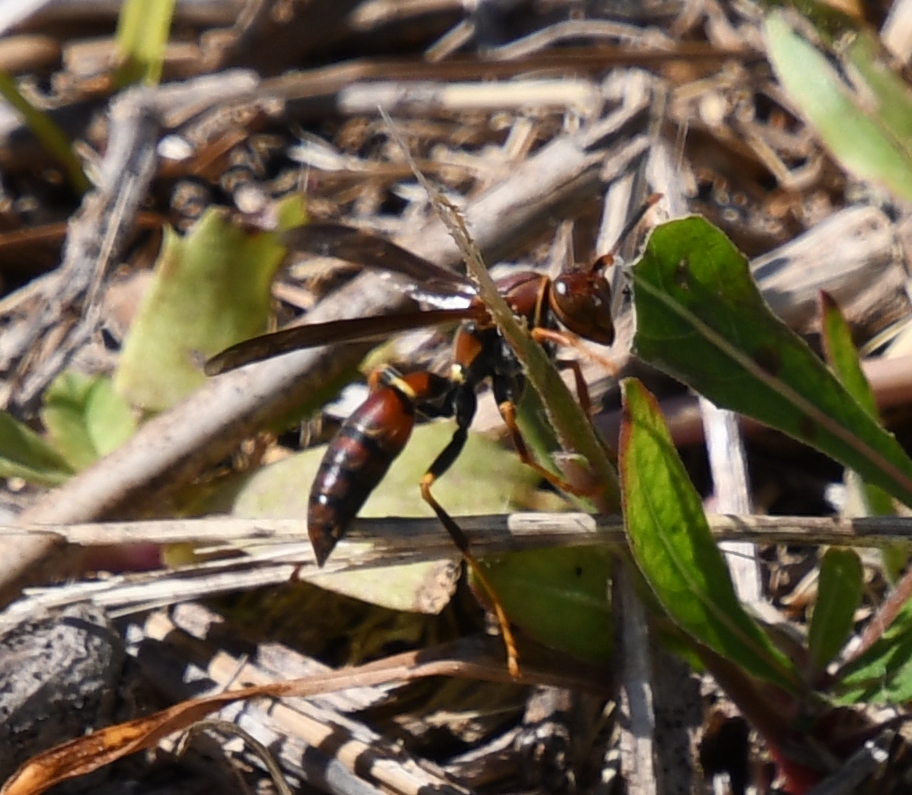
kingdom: Animalia
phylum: Arthropoda
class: Insecta
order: Hymenoptera
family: Eumenidae
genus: Polistes
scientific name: Polistes bahamensis
